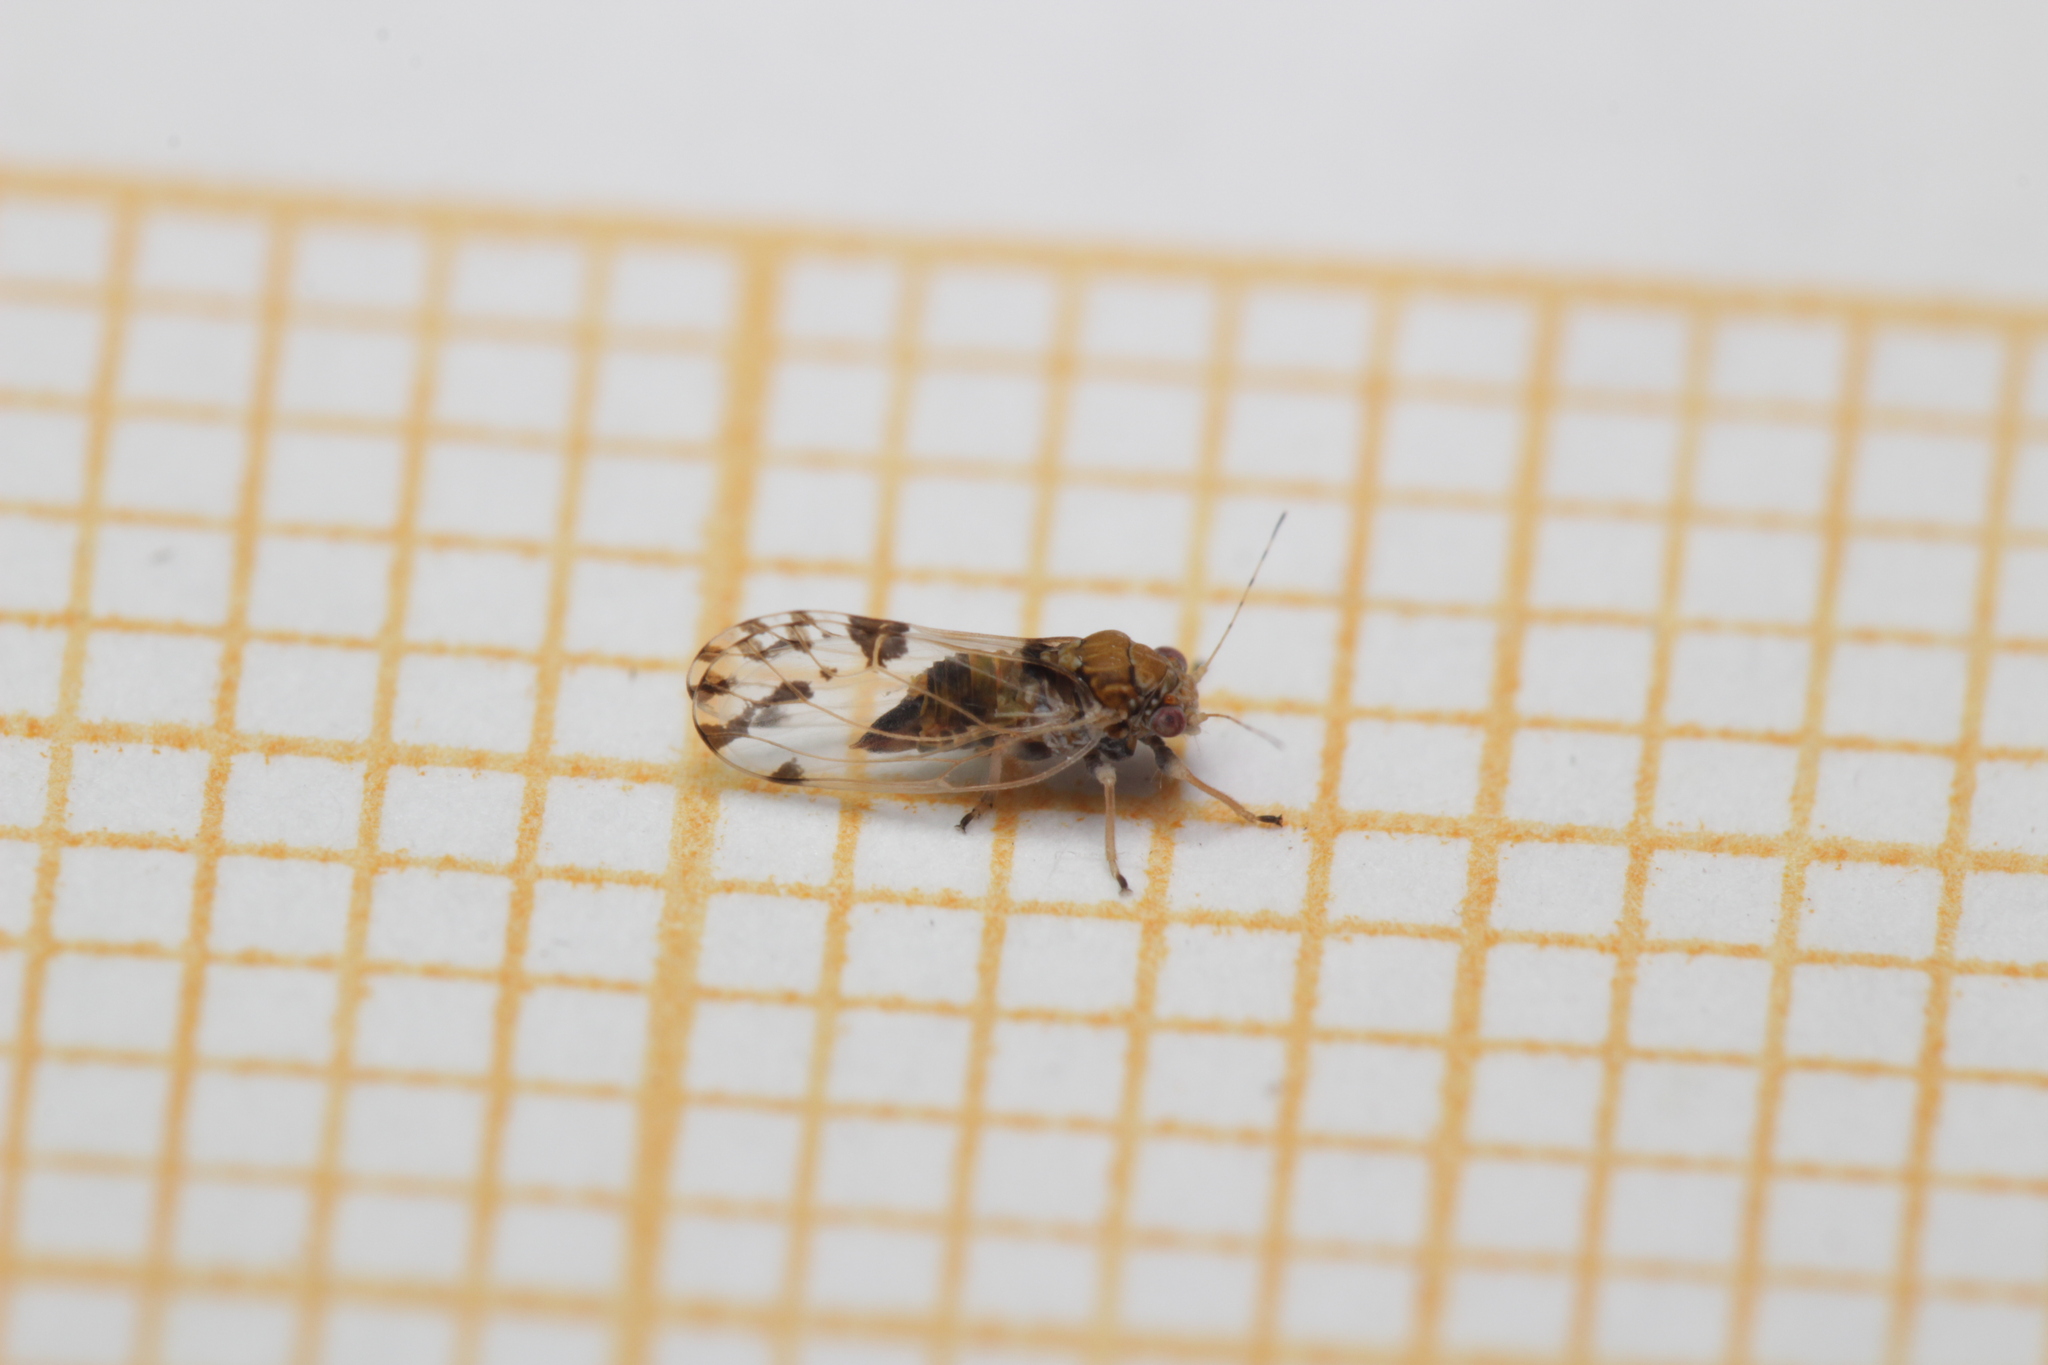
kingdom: Animalia
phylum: Arthropoda
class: Insecta
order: Hemiptera
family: Psyllidae
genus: Cacopsylla
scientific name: Cacopsylla pulchella
